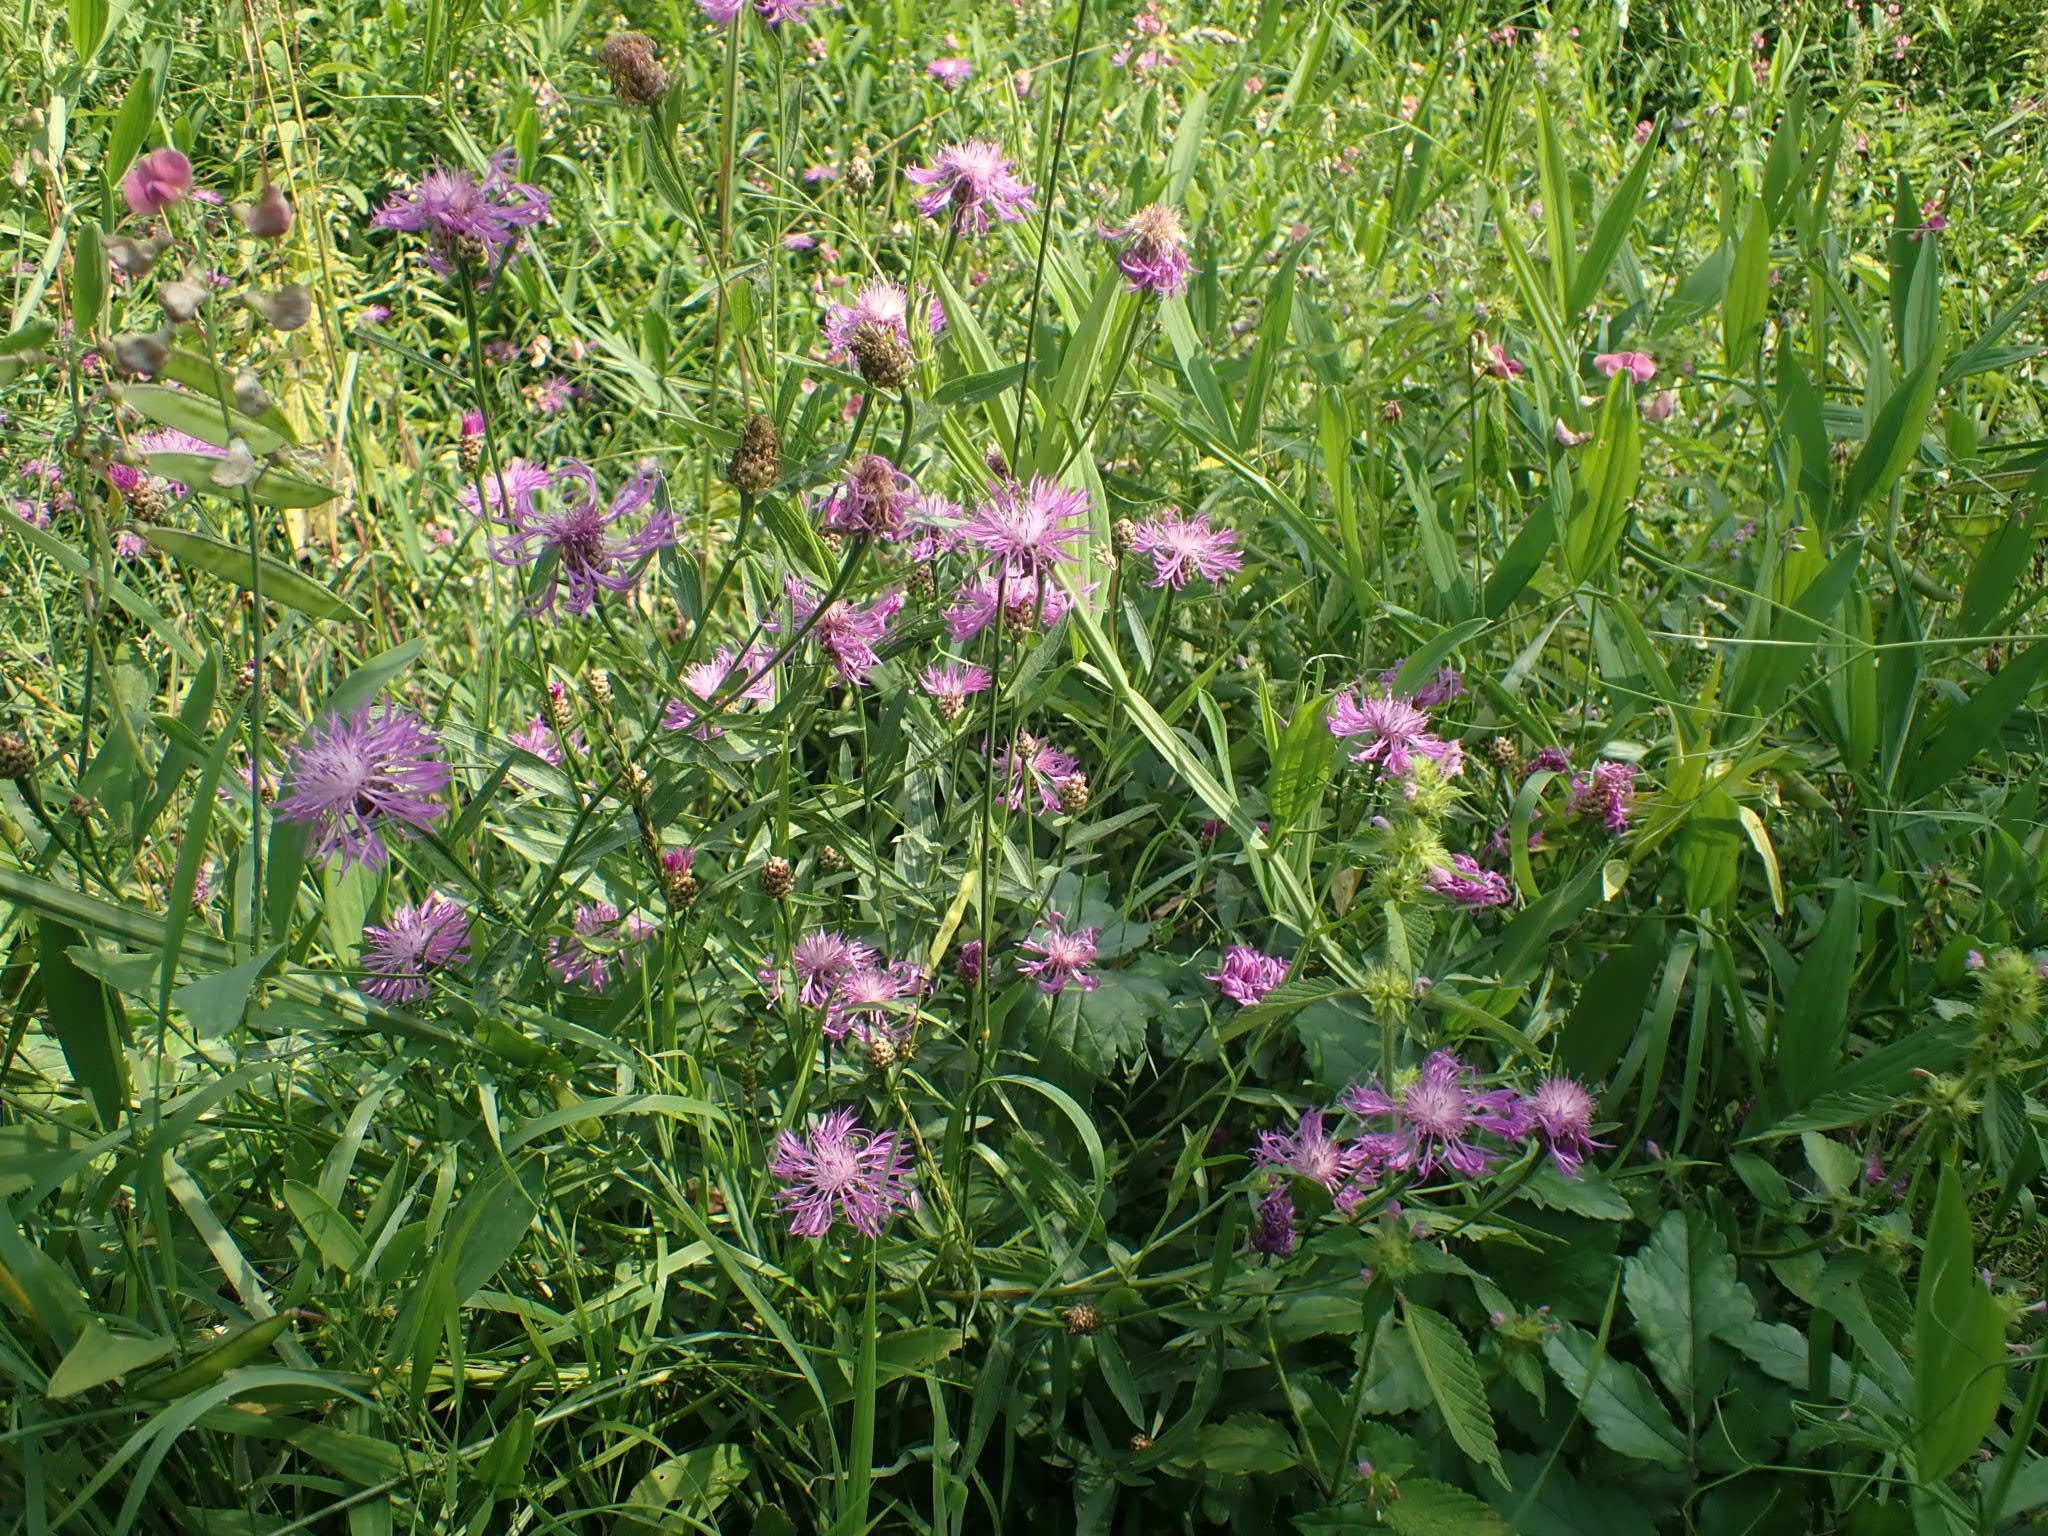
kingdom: Plantae
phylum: Tracheophyta
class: Magnoliopsida
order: Asterales
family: Asteraceae
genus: Centaurea
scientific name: Centaurea jacea
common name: Brown knapweed
